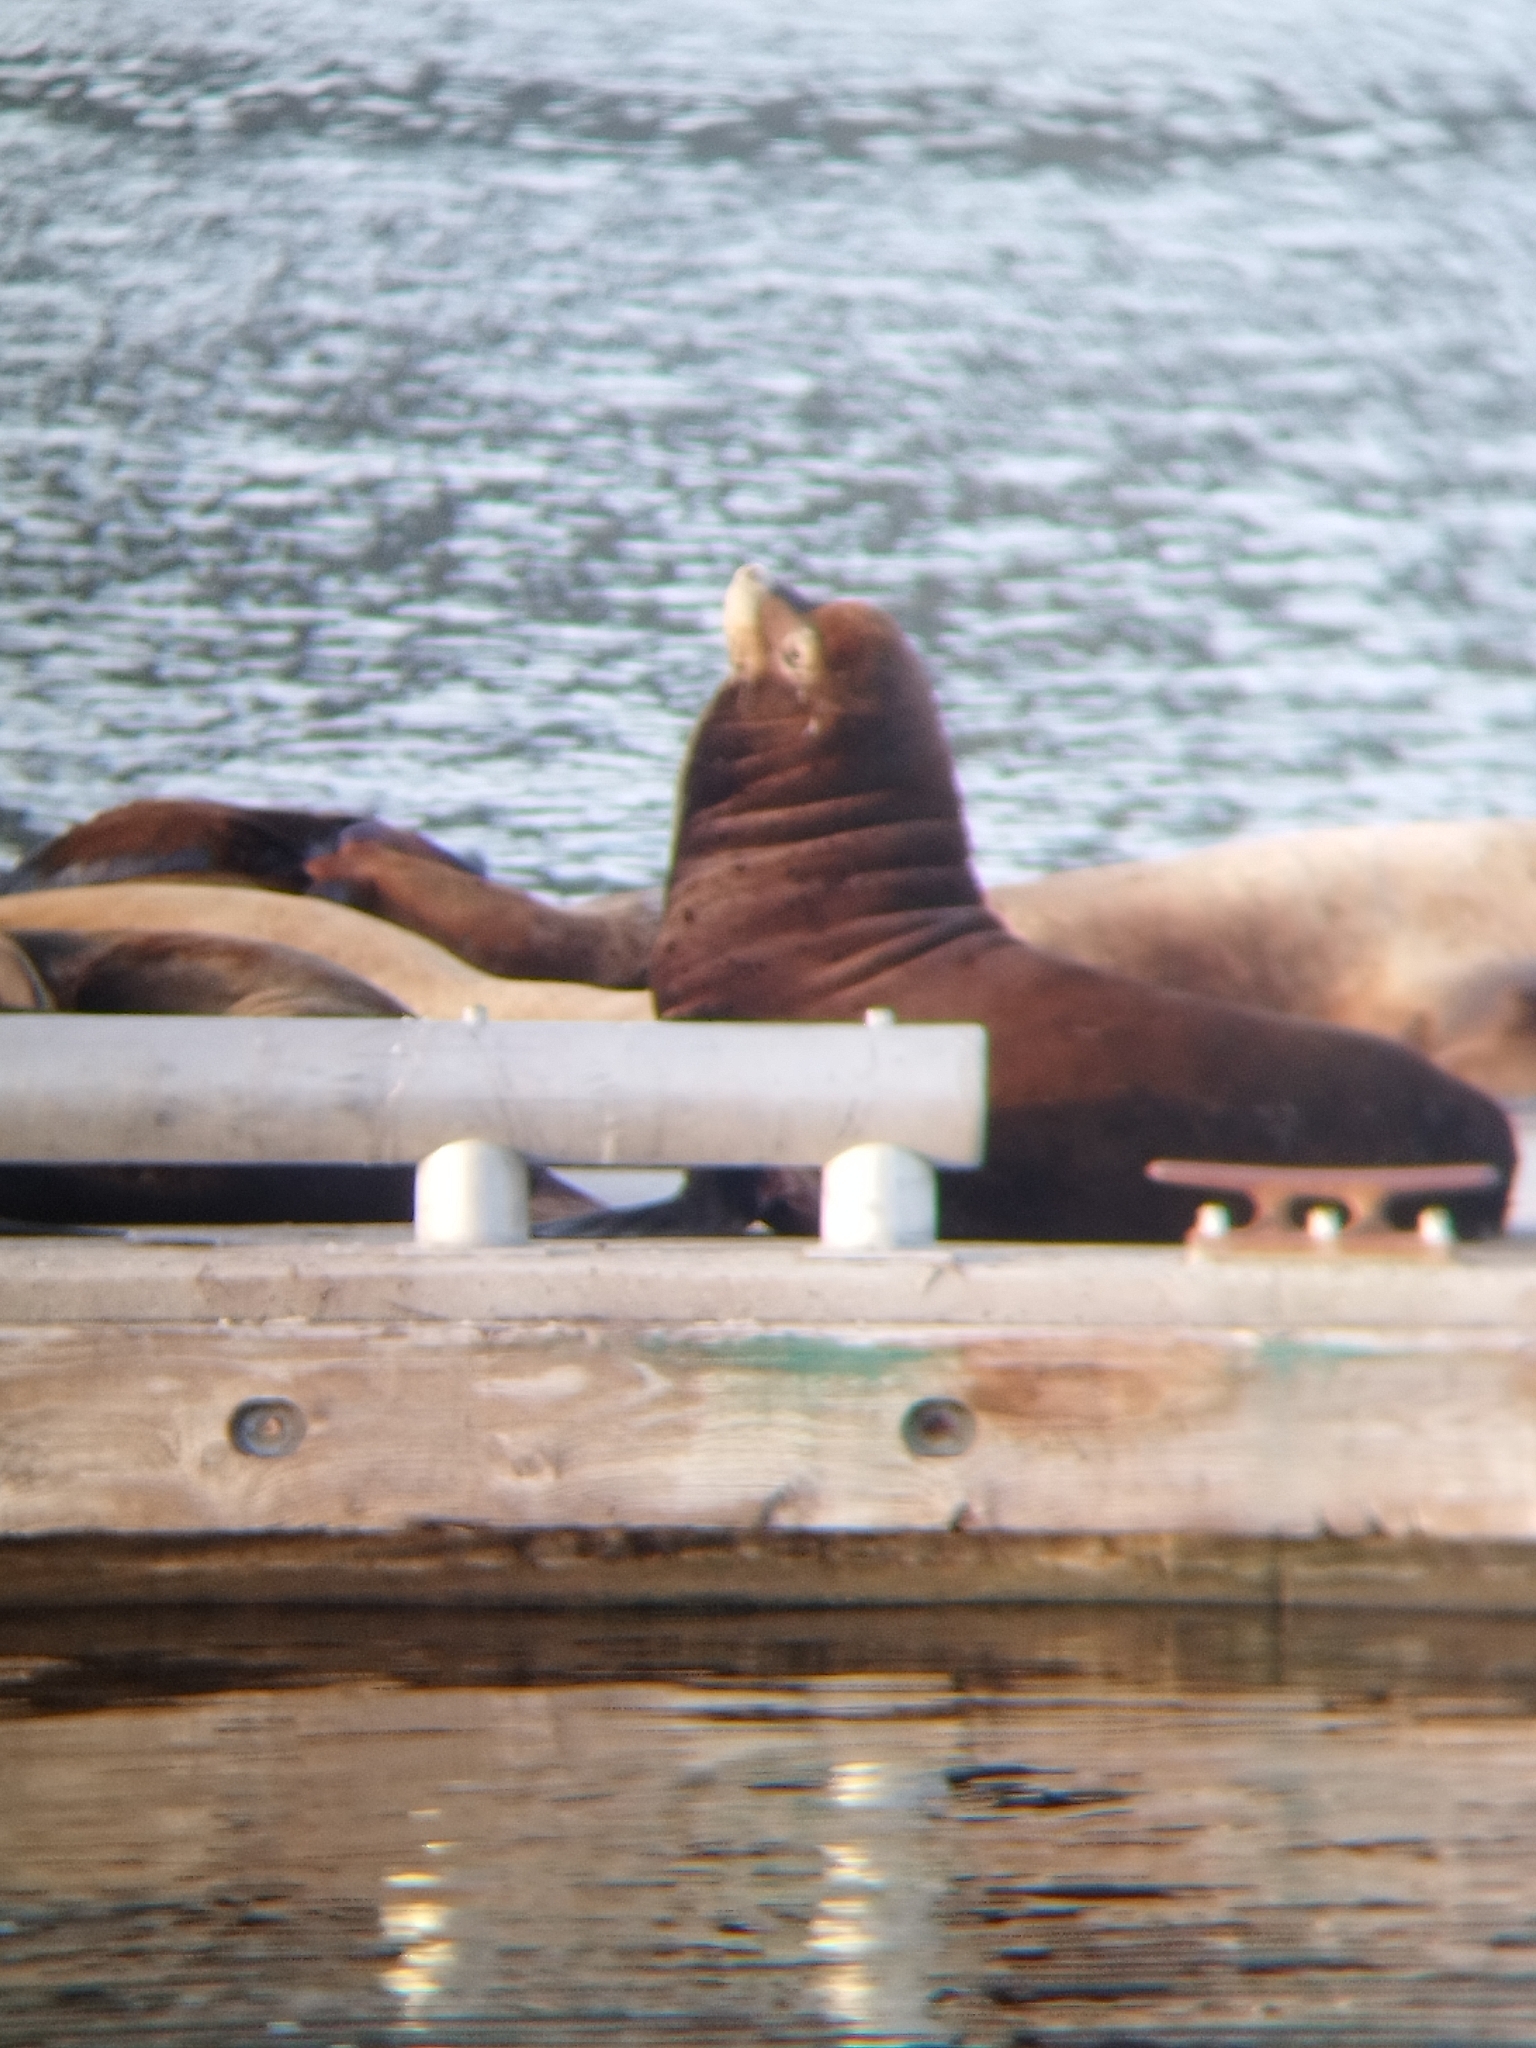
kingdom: Animalia
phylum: Chordata
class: Mammalia
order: Carnivora
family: Otariidae
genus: Zalophus
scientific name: Zalophus californianus
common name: California sea lion
